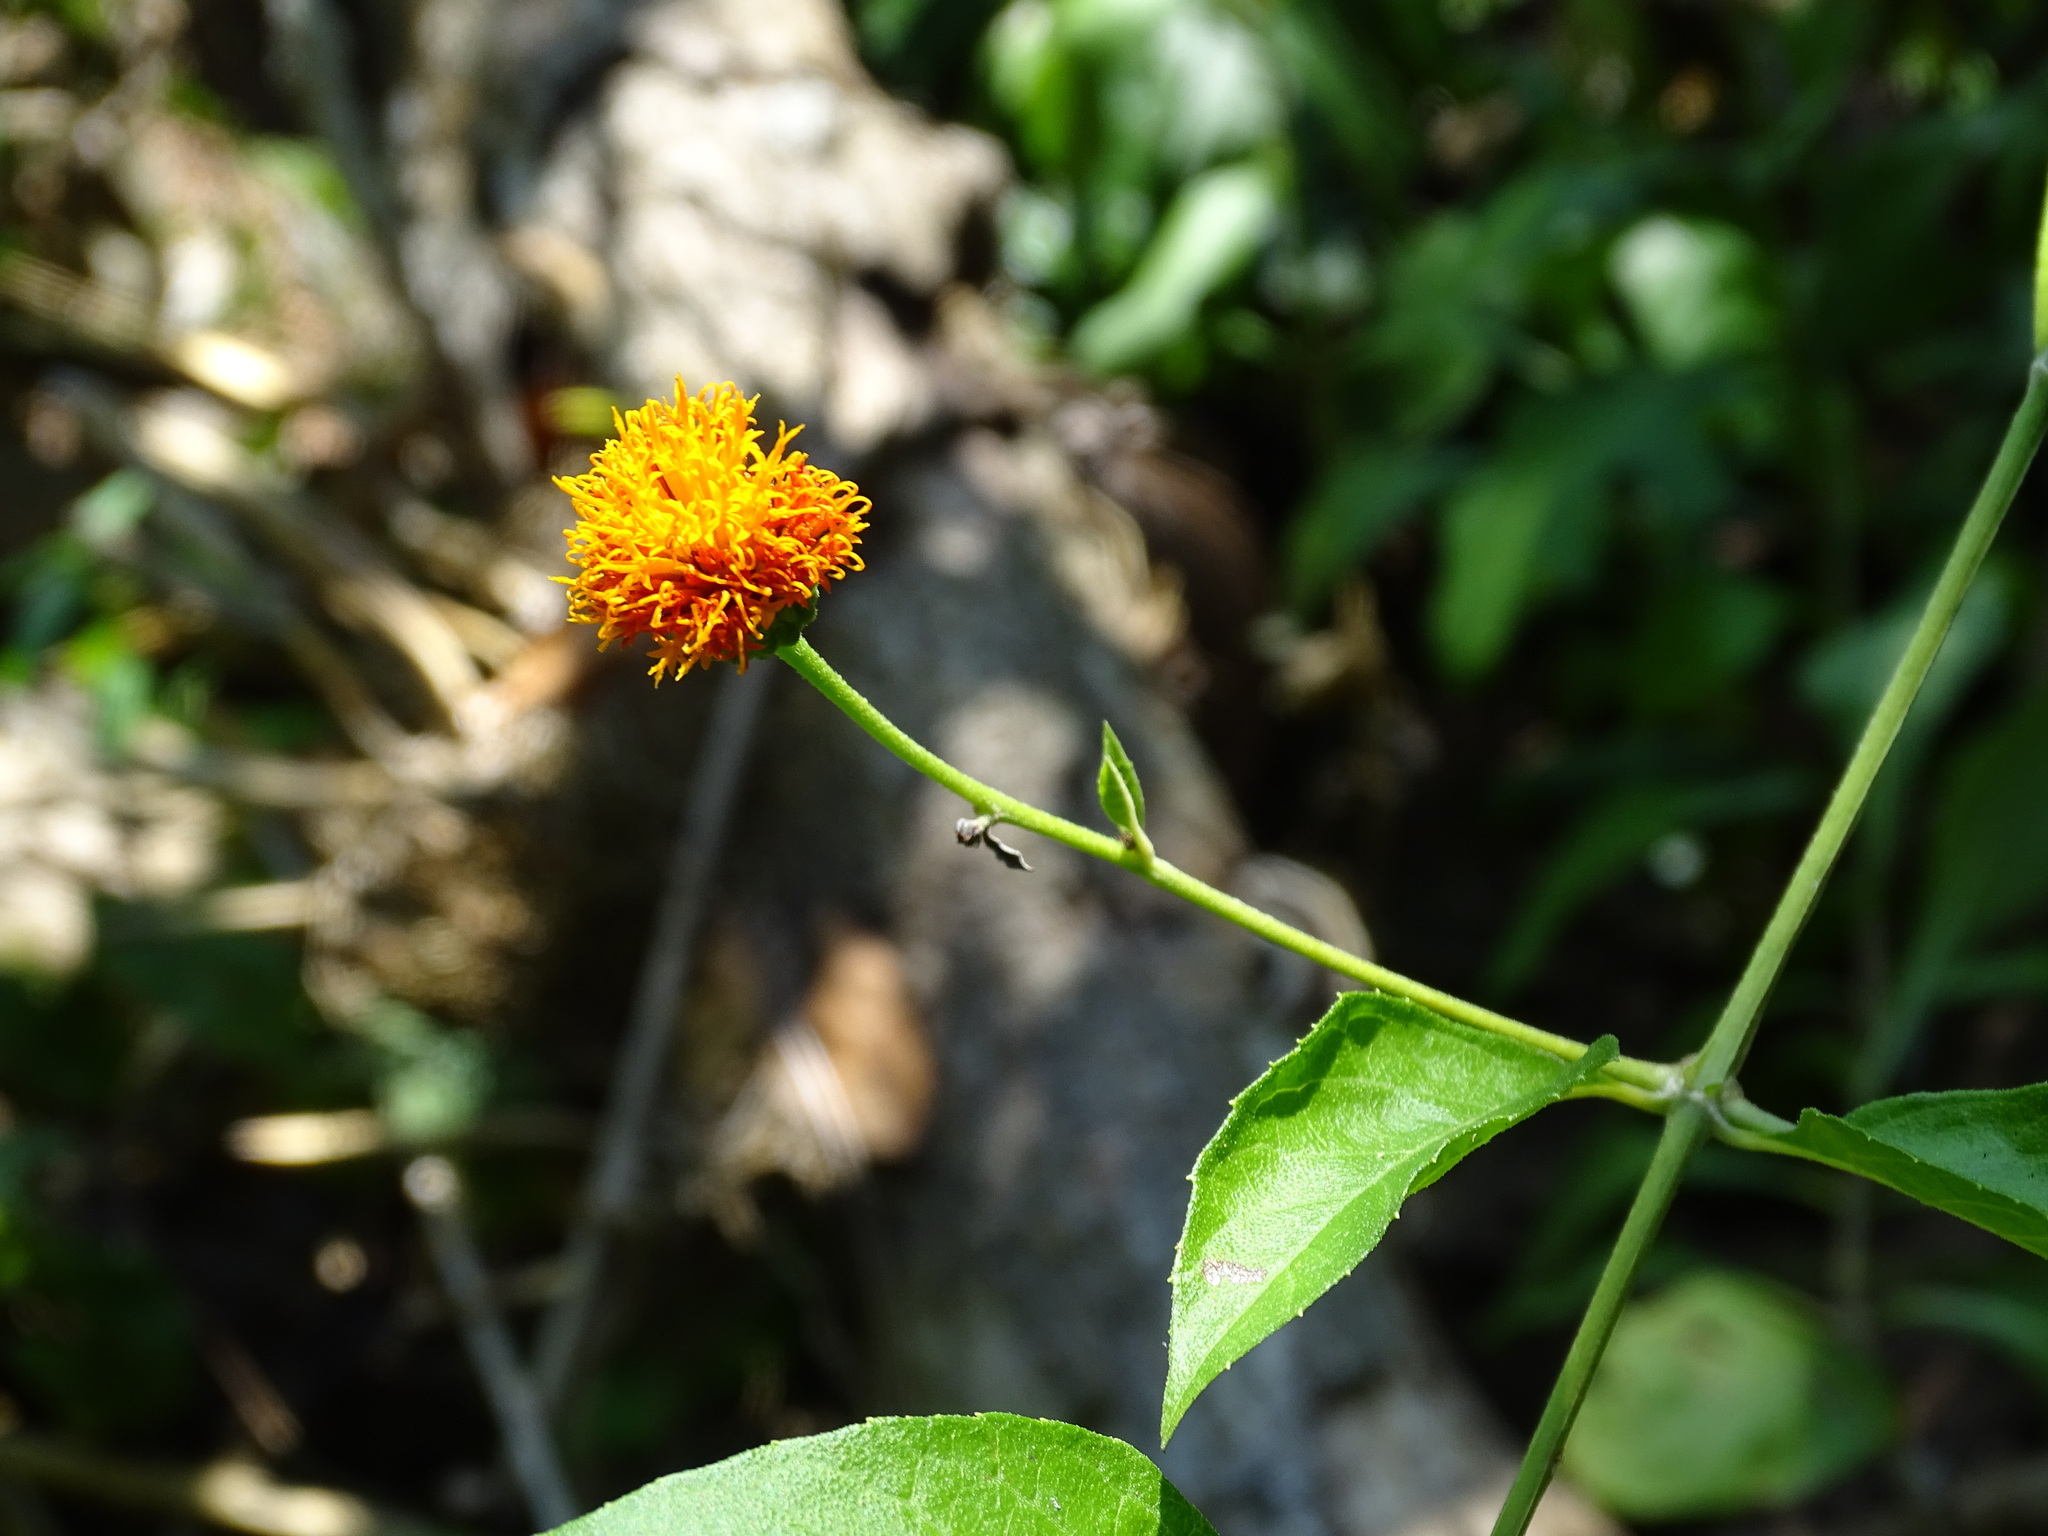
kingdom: Plantae
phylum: Tracheophyta
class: Magnoliopsida
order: Asterales
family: Asteraceae
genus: Verbesina
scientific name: Verbesina ovatifolia
